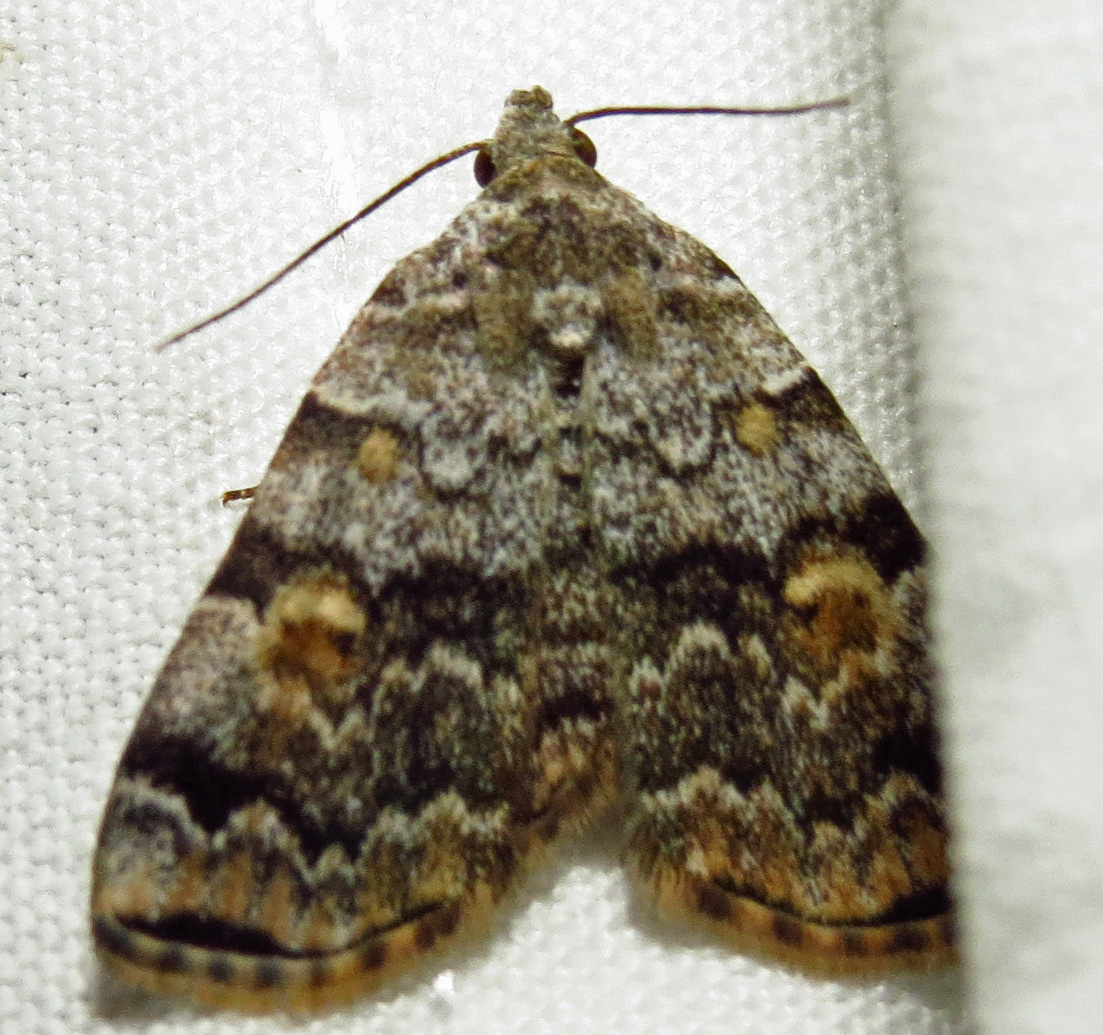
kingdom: Animalia
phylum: Arthropoda
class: Insecta
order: Lepidoptera
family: Erebidae
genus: Idia
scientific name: Idia americalis
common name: American idia moth
